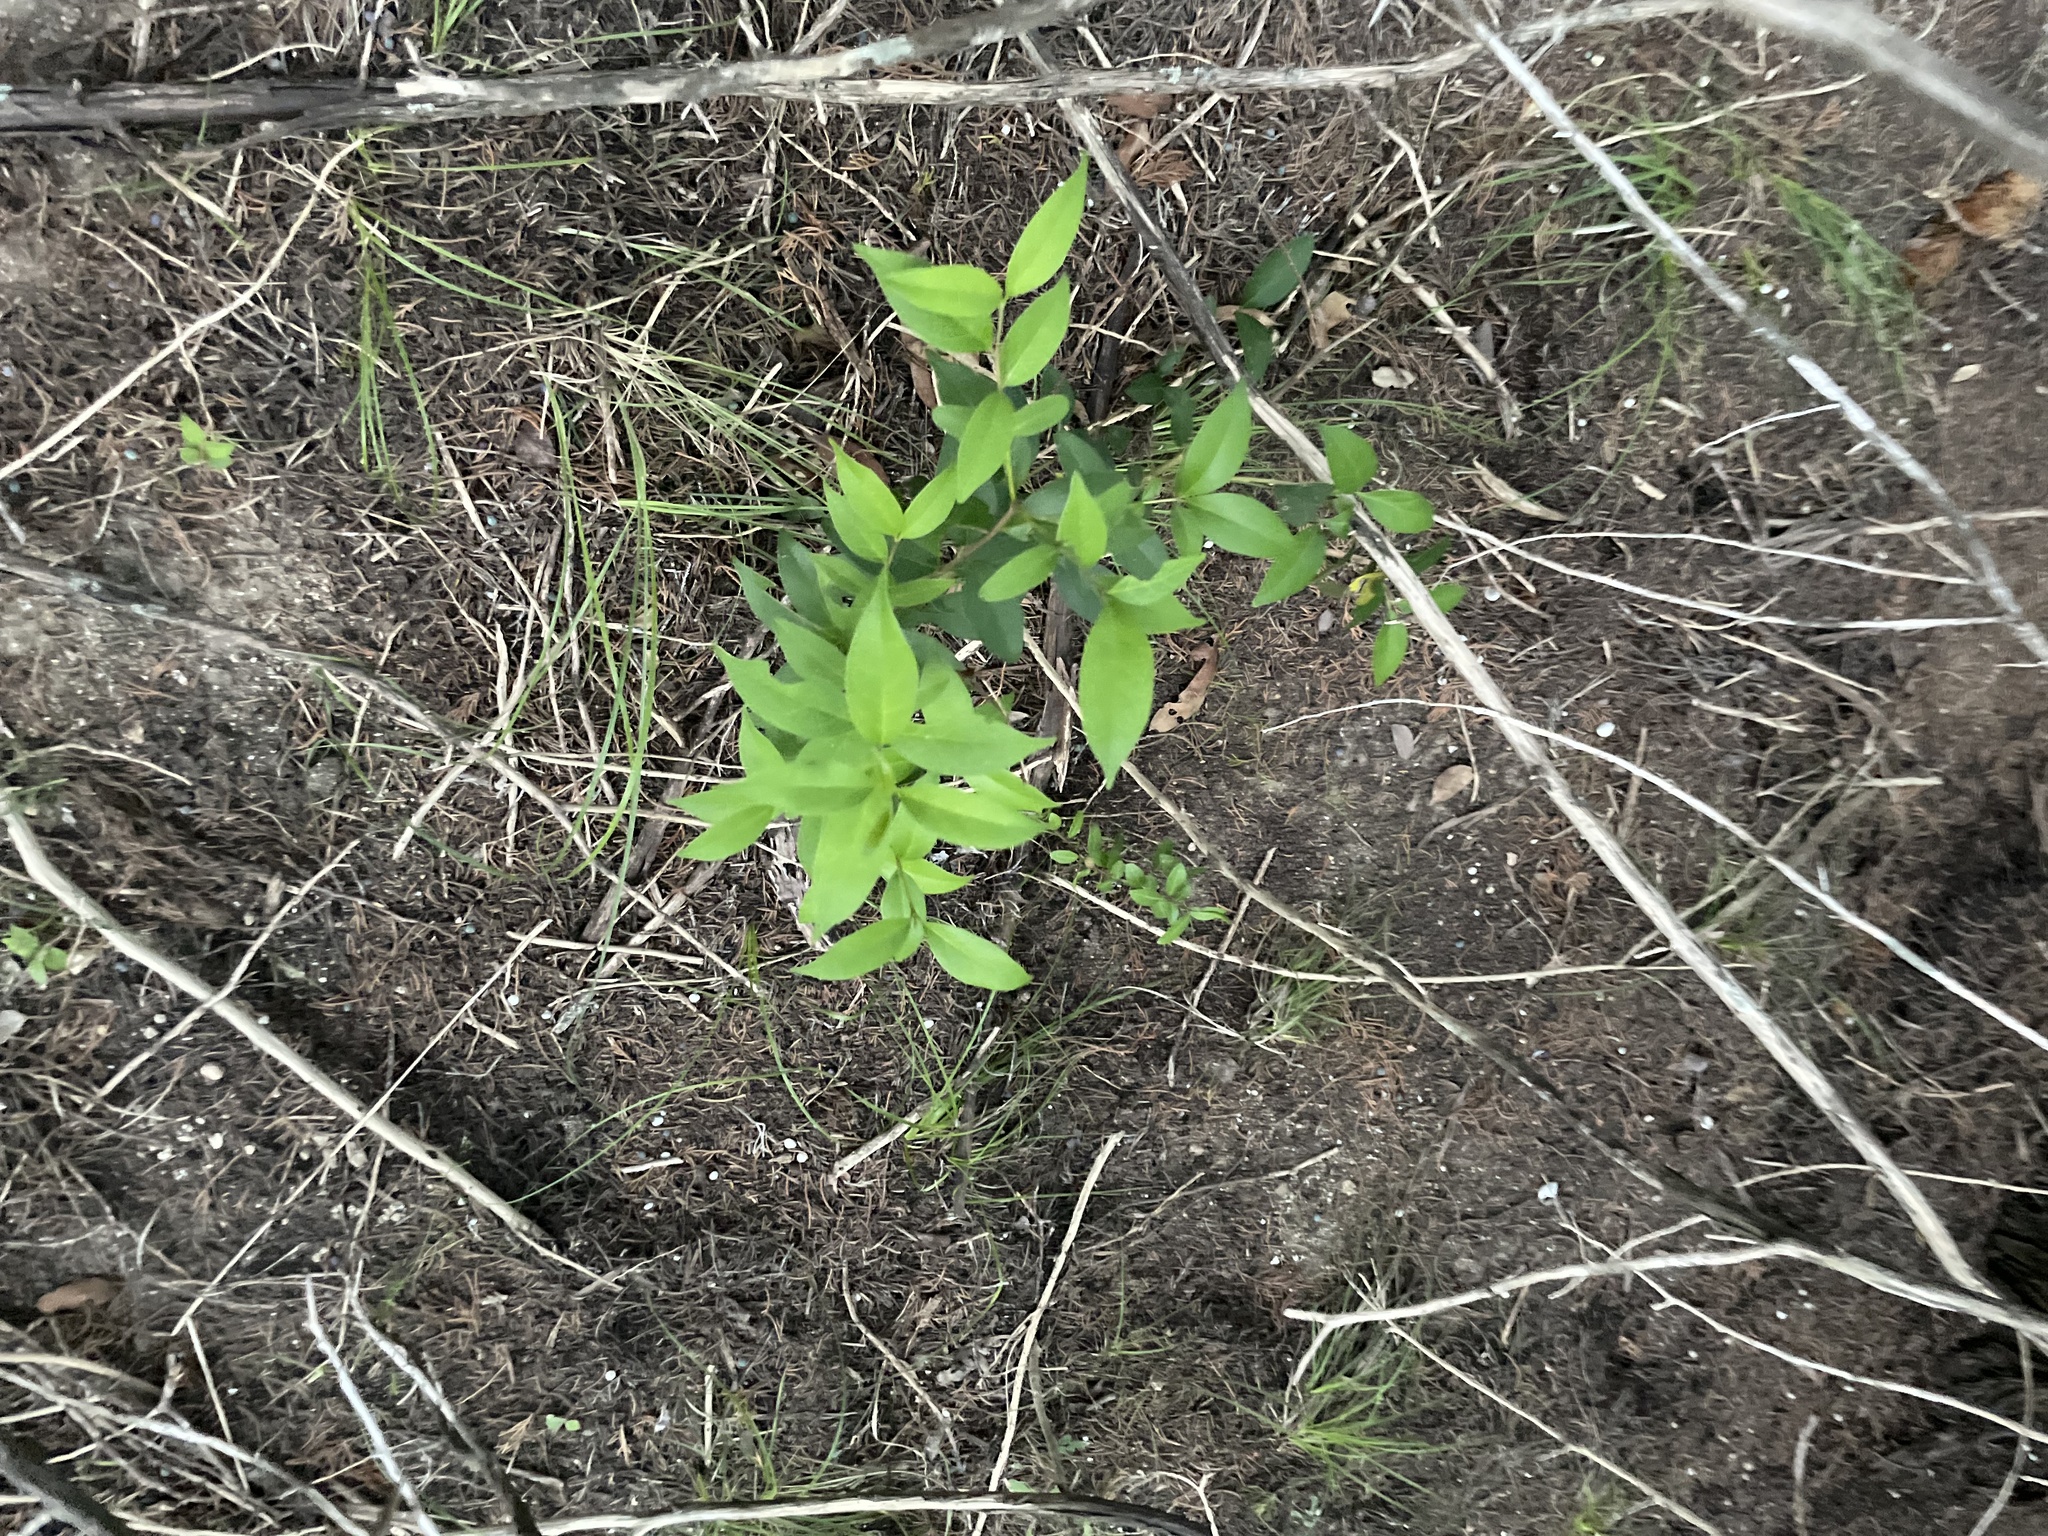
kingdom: Plantae
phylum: Tracheophyta
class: Magnoliopsida
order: Lamiales
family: Oleaceae
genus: Ligustrum
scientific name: Ligustrum lucidum
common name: Glossy privet
